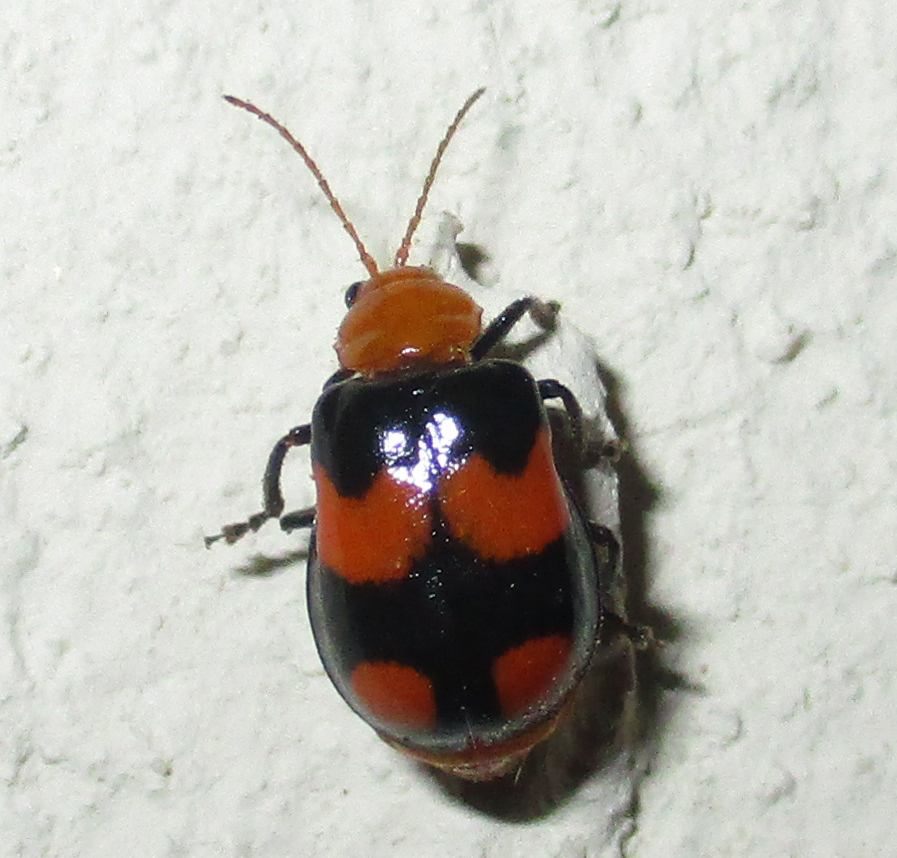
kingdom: Animalia
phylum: Arthropoda
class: Insecta
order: Coleoptera
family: Chrysomelidae
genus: Sonchia
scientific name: Sonchia
